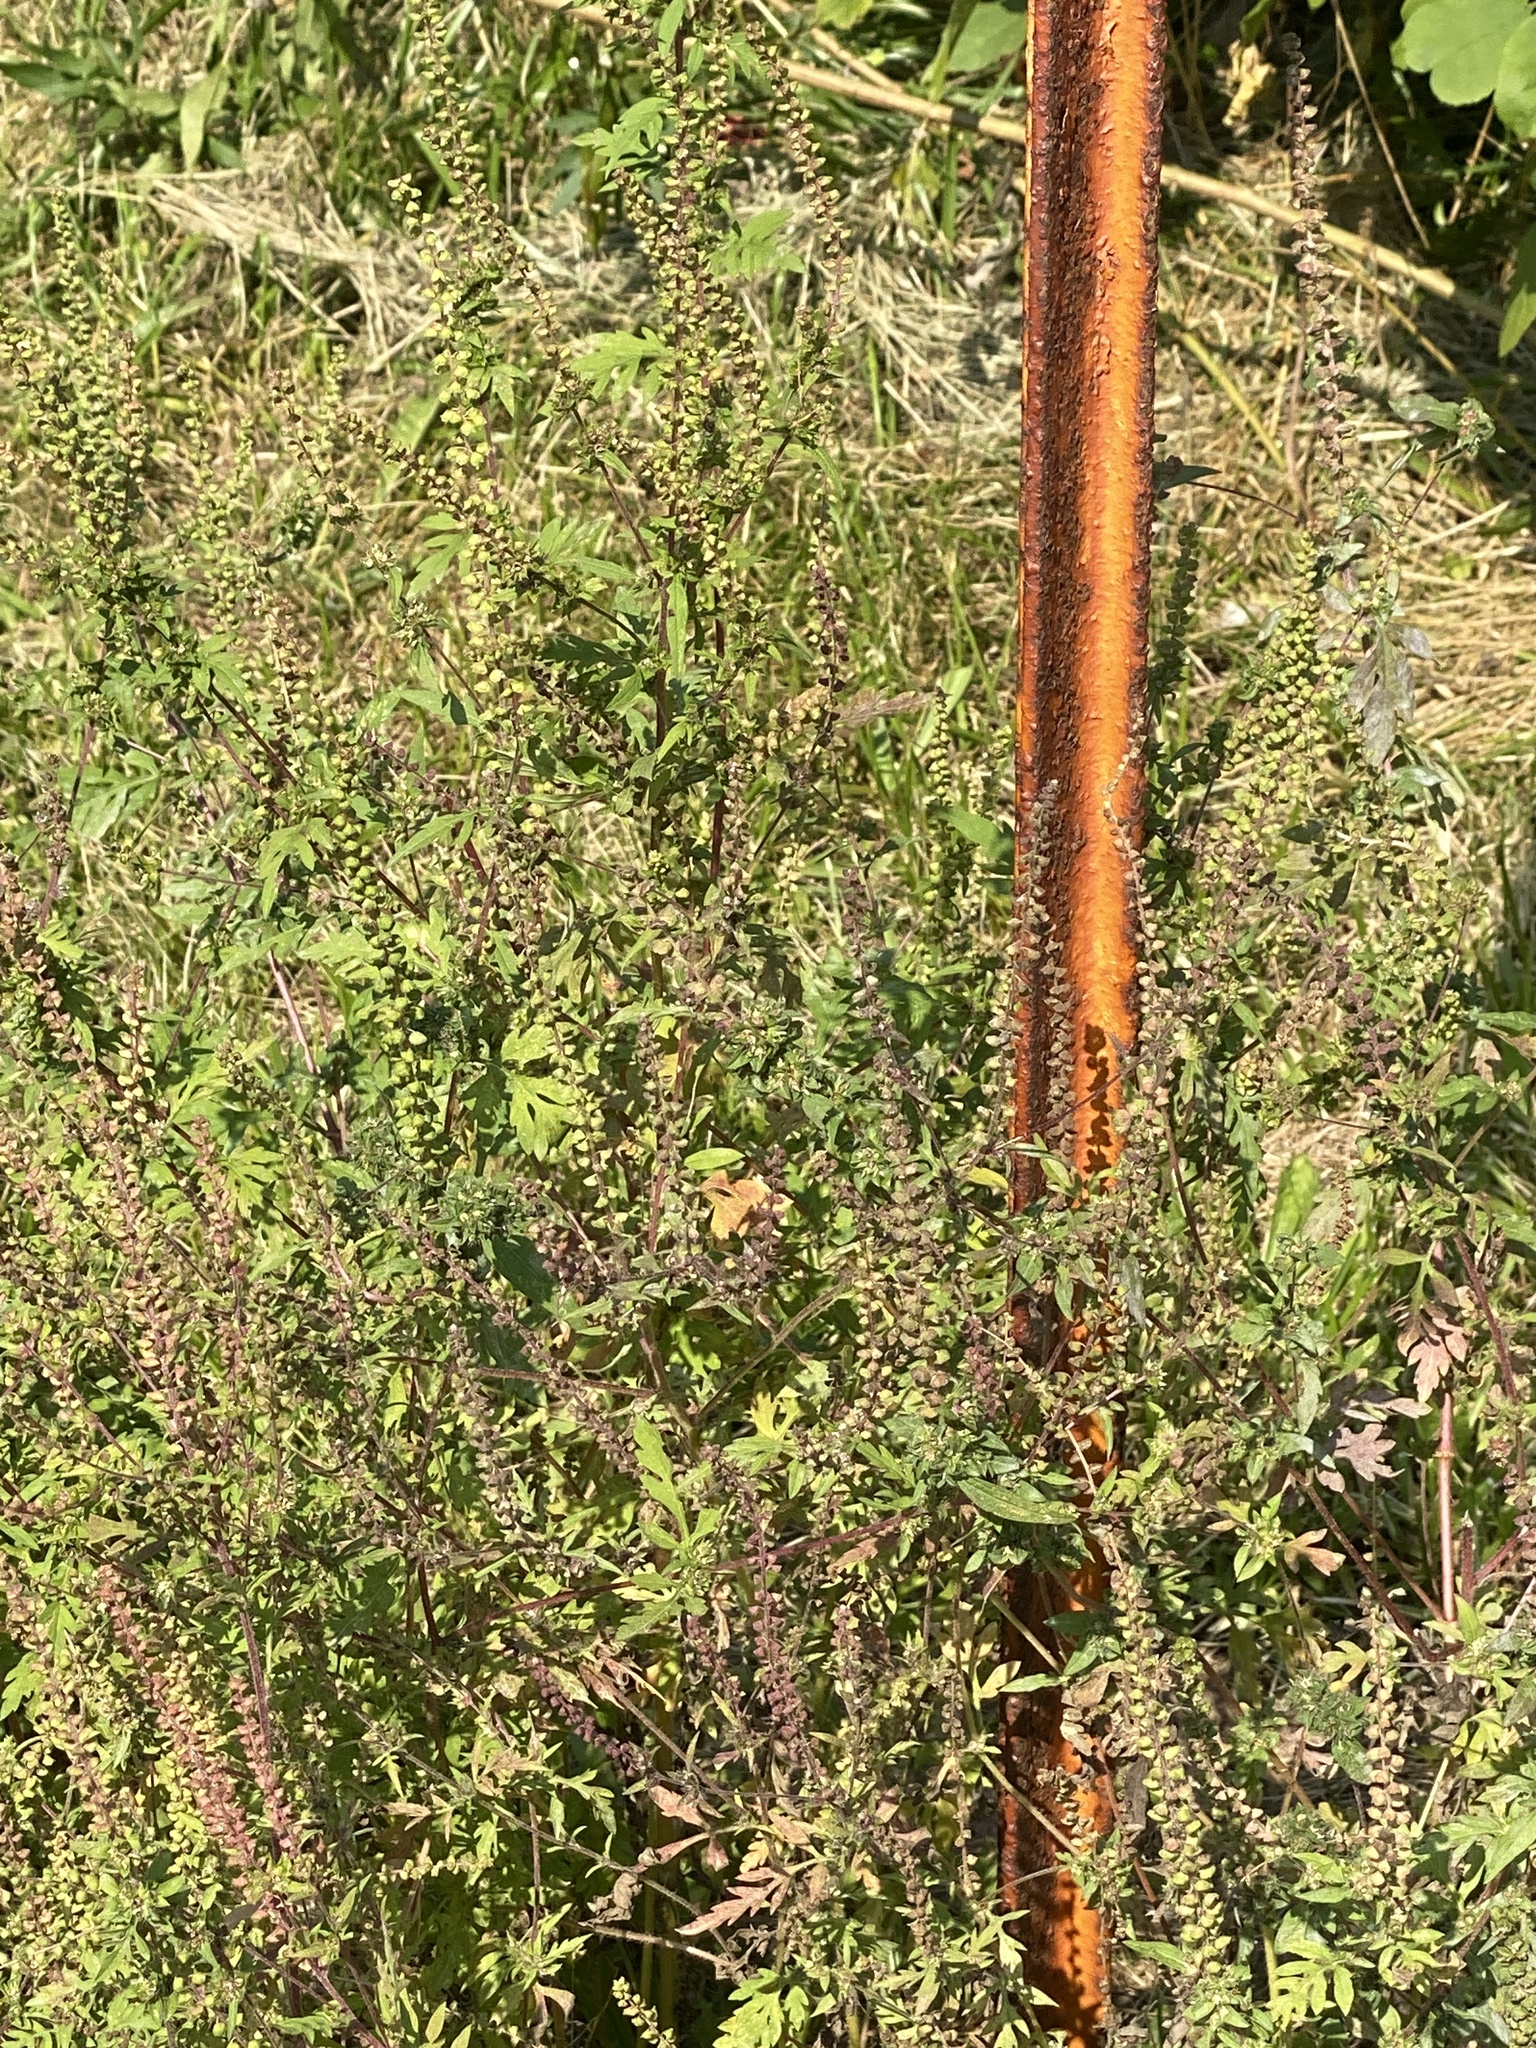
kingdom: Plantae
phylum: Tracheophyta
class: Magnoliopsida
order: Asterales
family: Asteraceae
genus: Ambrosia
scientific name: Ambrosia artemisiifolia
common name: Annual ragweed
